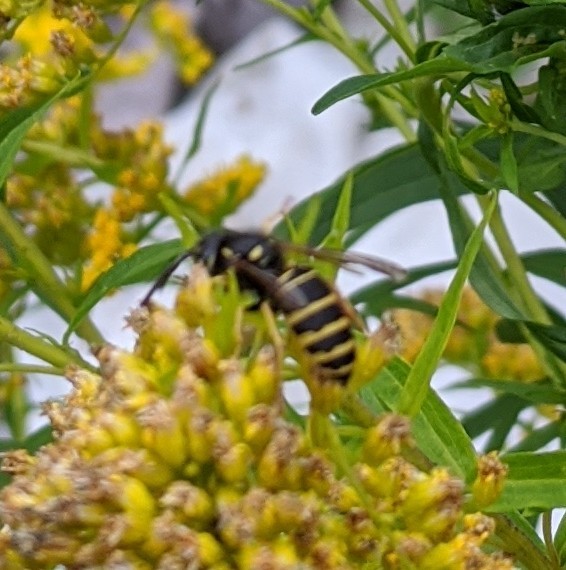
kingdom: Animalia
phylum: Arthropoda
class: Insecta
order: Hymenoptera
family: Vespidae
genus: Vespula
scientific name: Vespula acadica
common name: Forest yellowjacket
